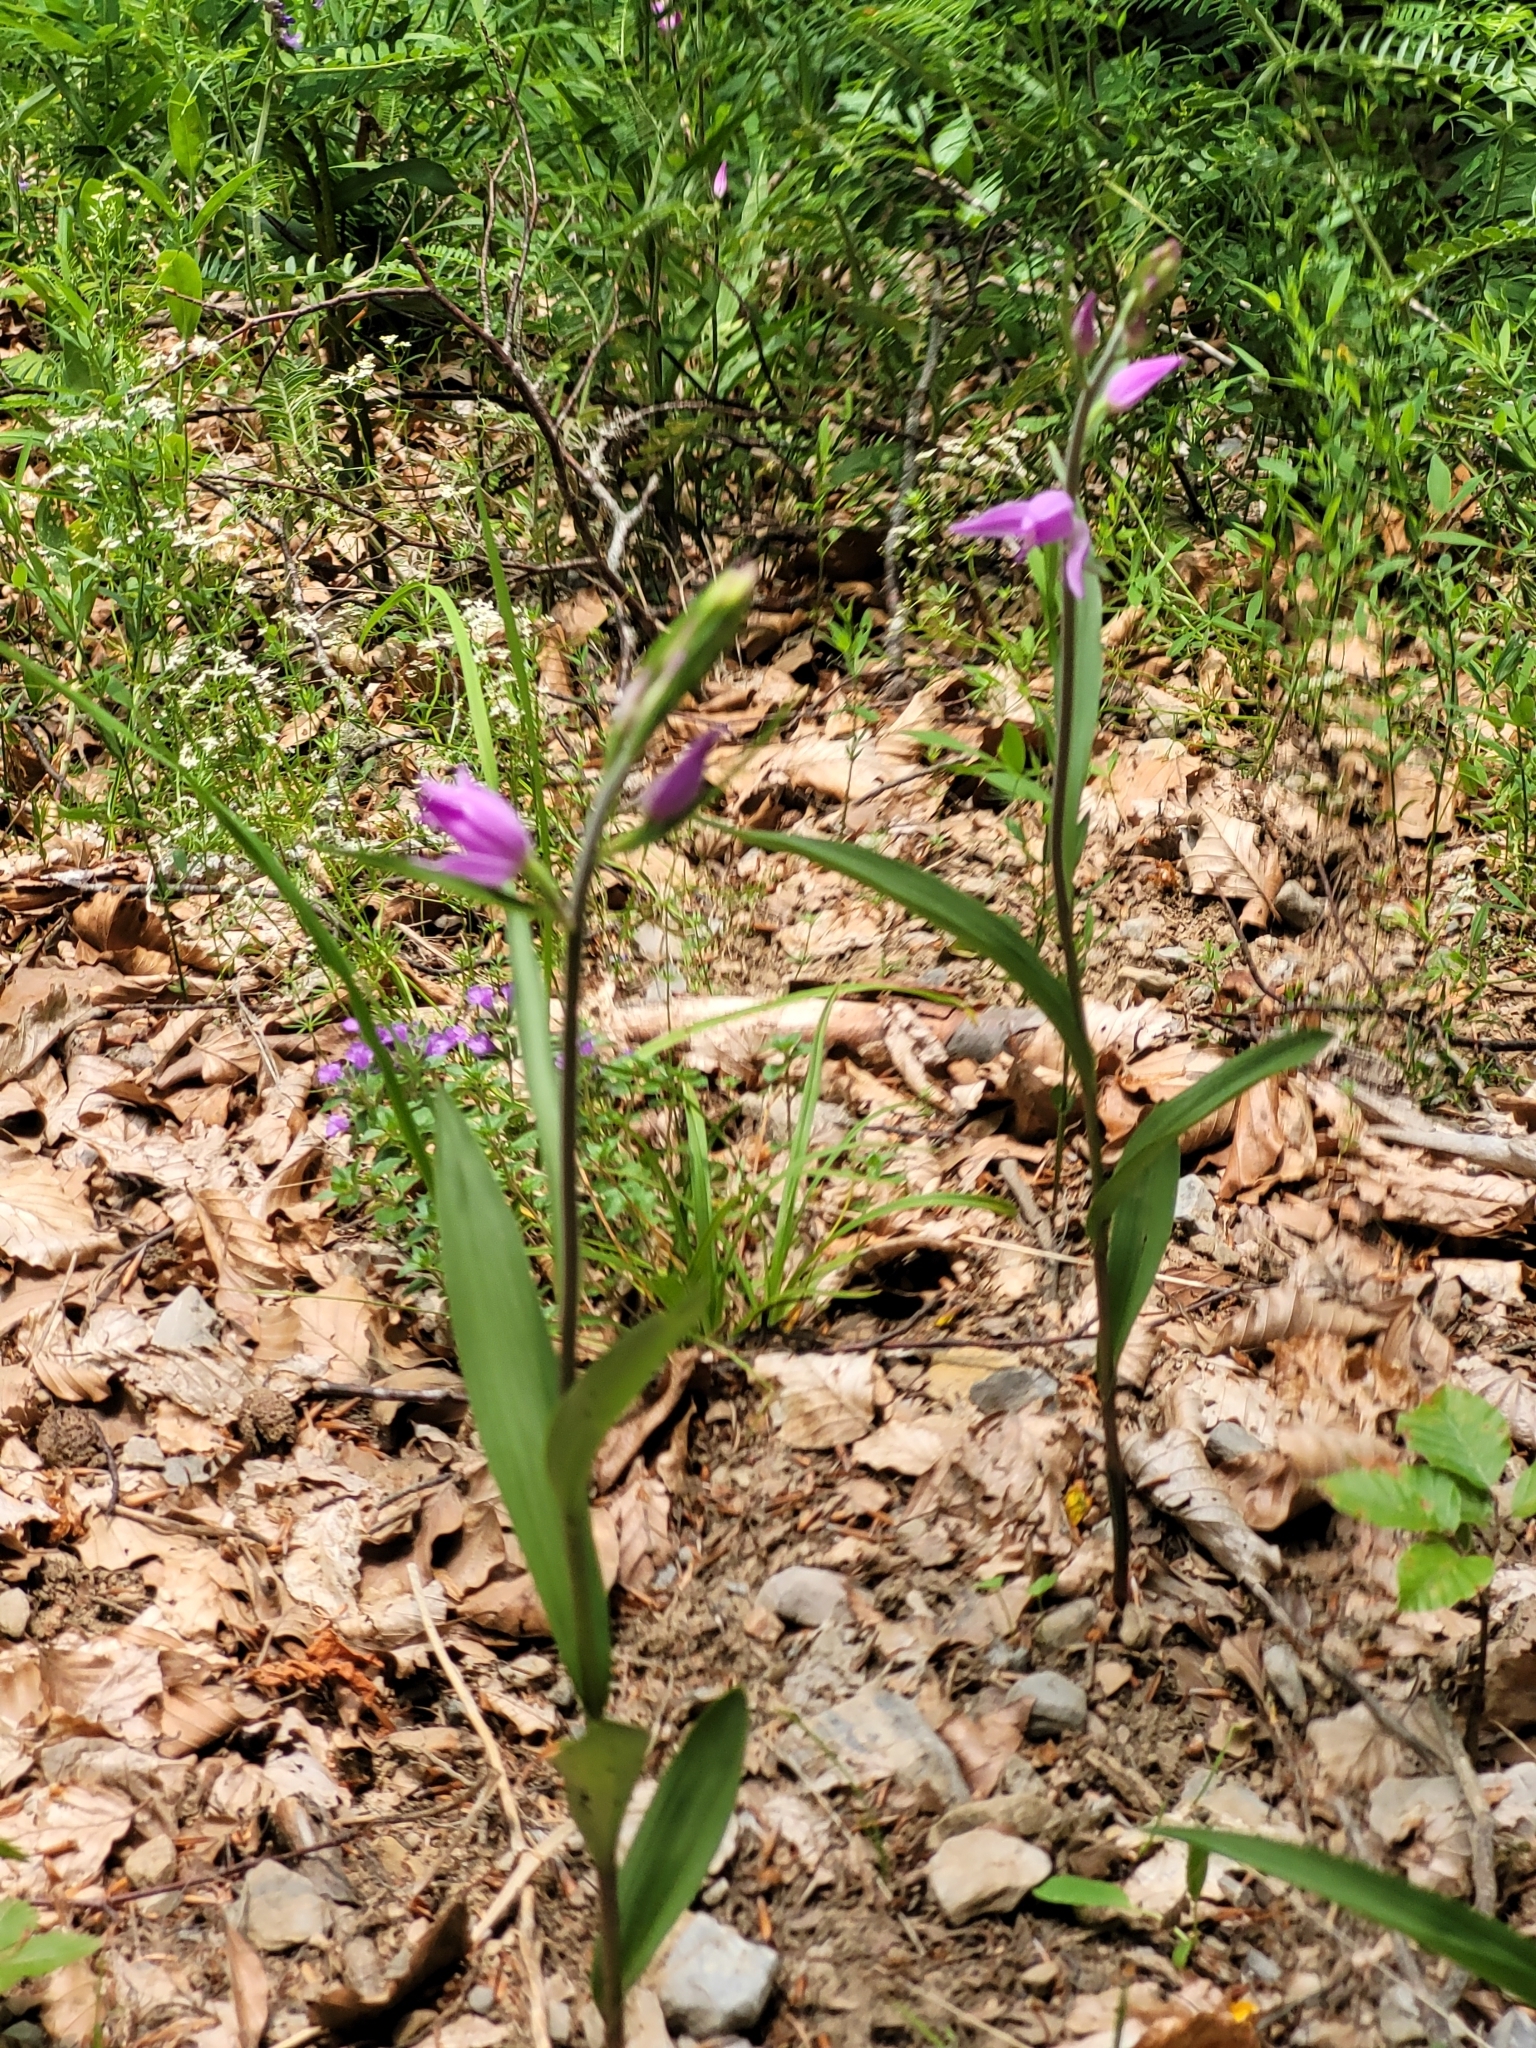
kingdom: Plantae
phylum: Tracheophyta
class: Liliopsida
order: Asparagales
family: Orchidaceae
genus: Cephalanthera
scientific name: Cephalanthera rubra
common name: Red helleborine
